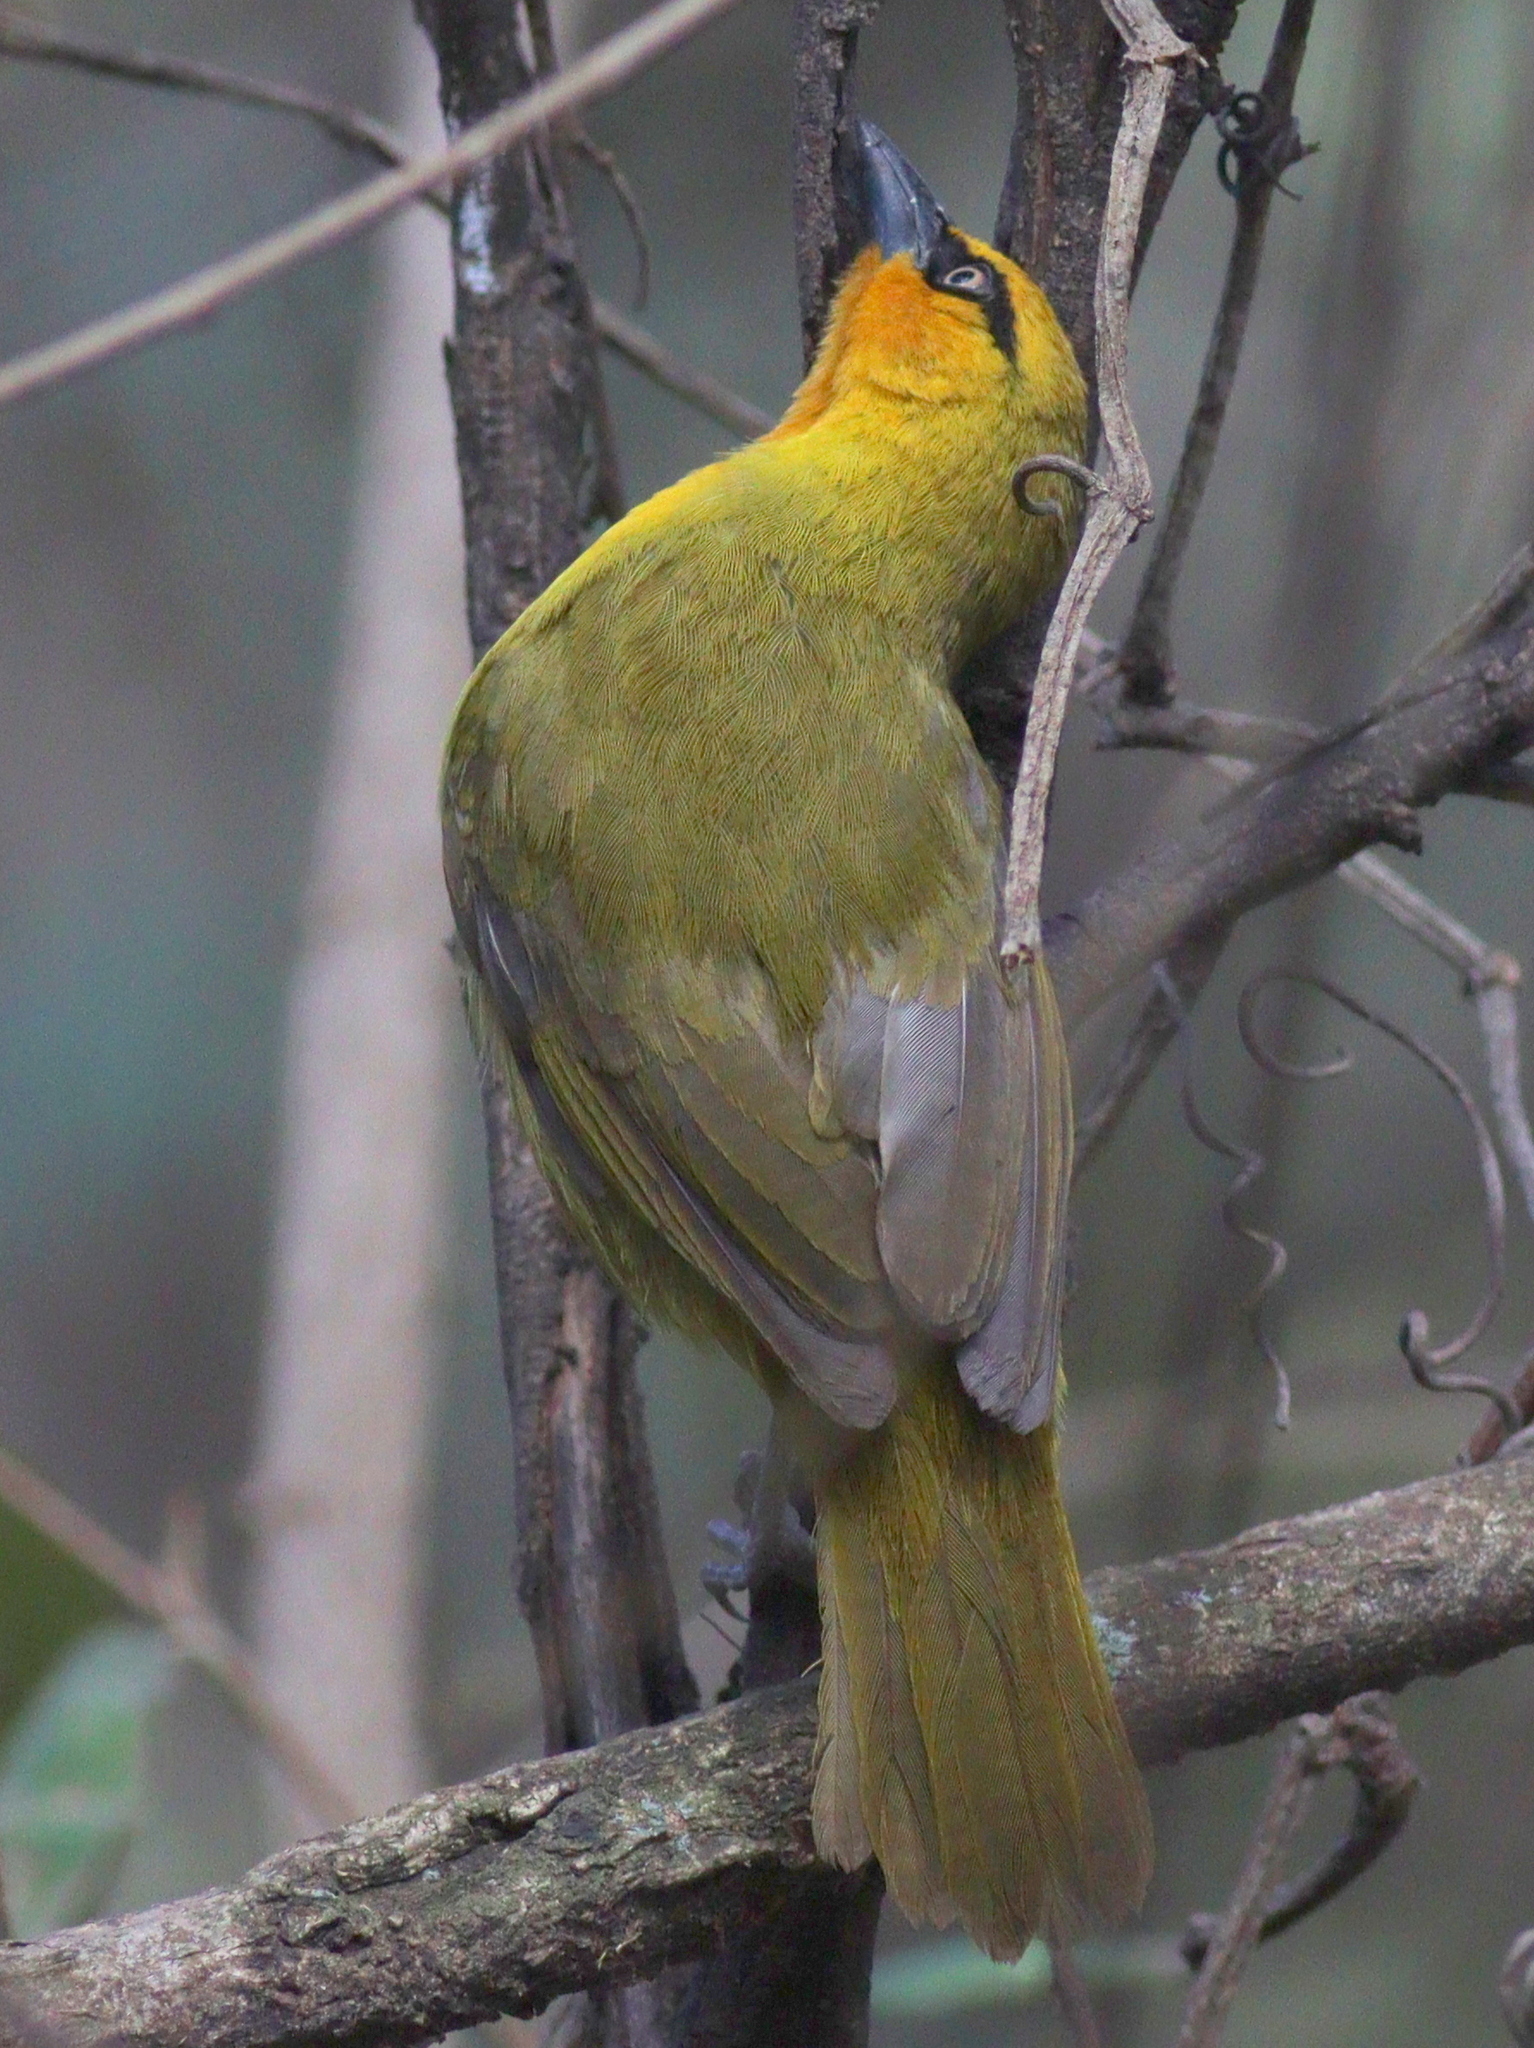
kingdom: Animalia
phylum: Chordata
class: Aves
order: Passeriformes
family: Ploceidae
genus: Ploceus
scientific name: Ploceus ocularis
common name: Spectacled weaver
